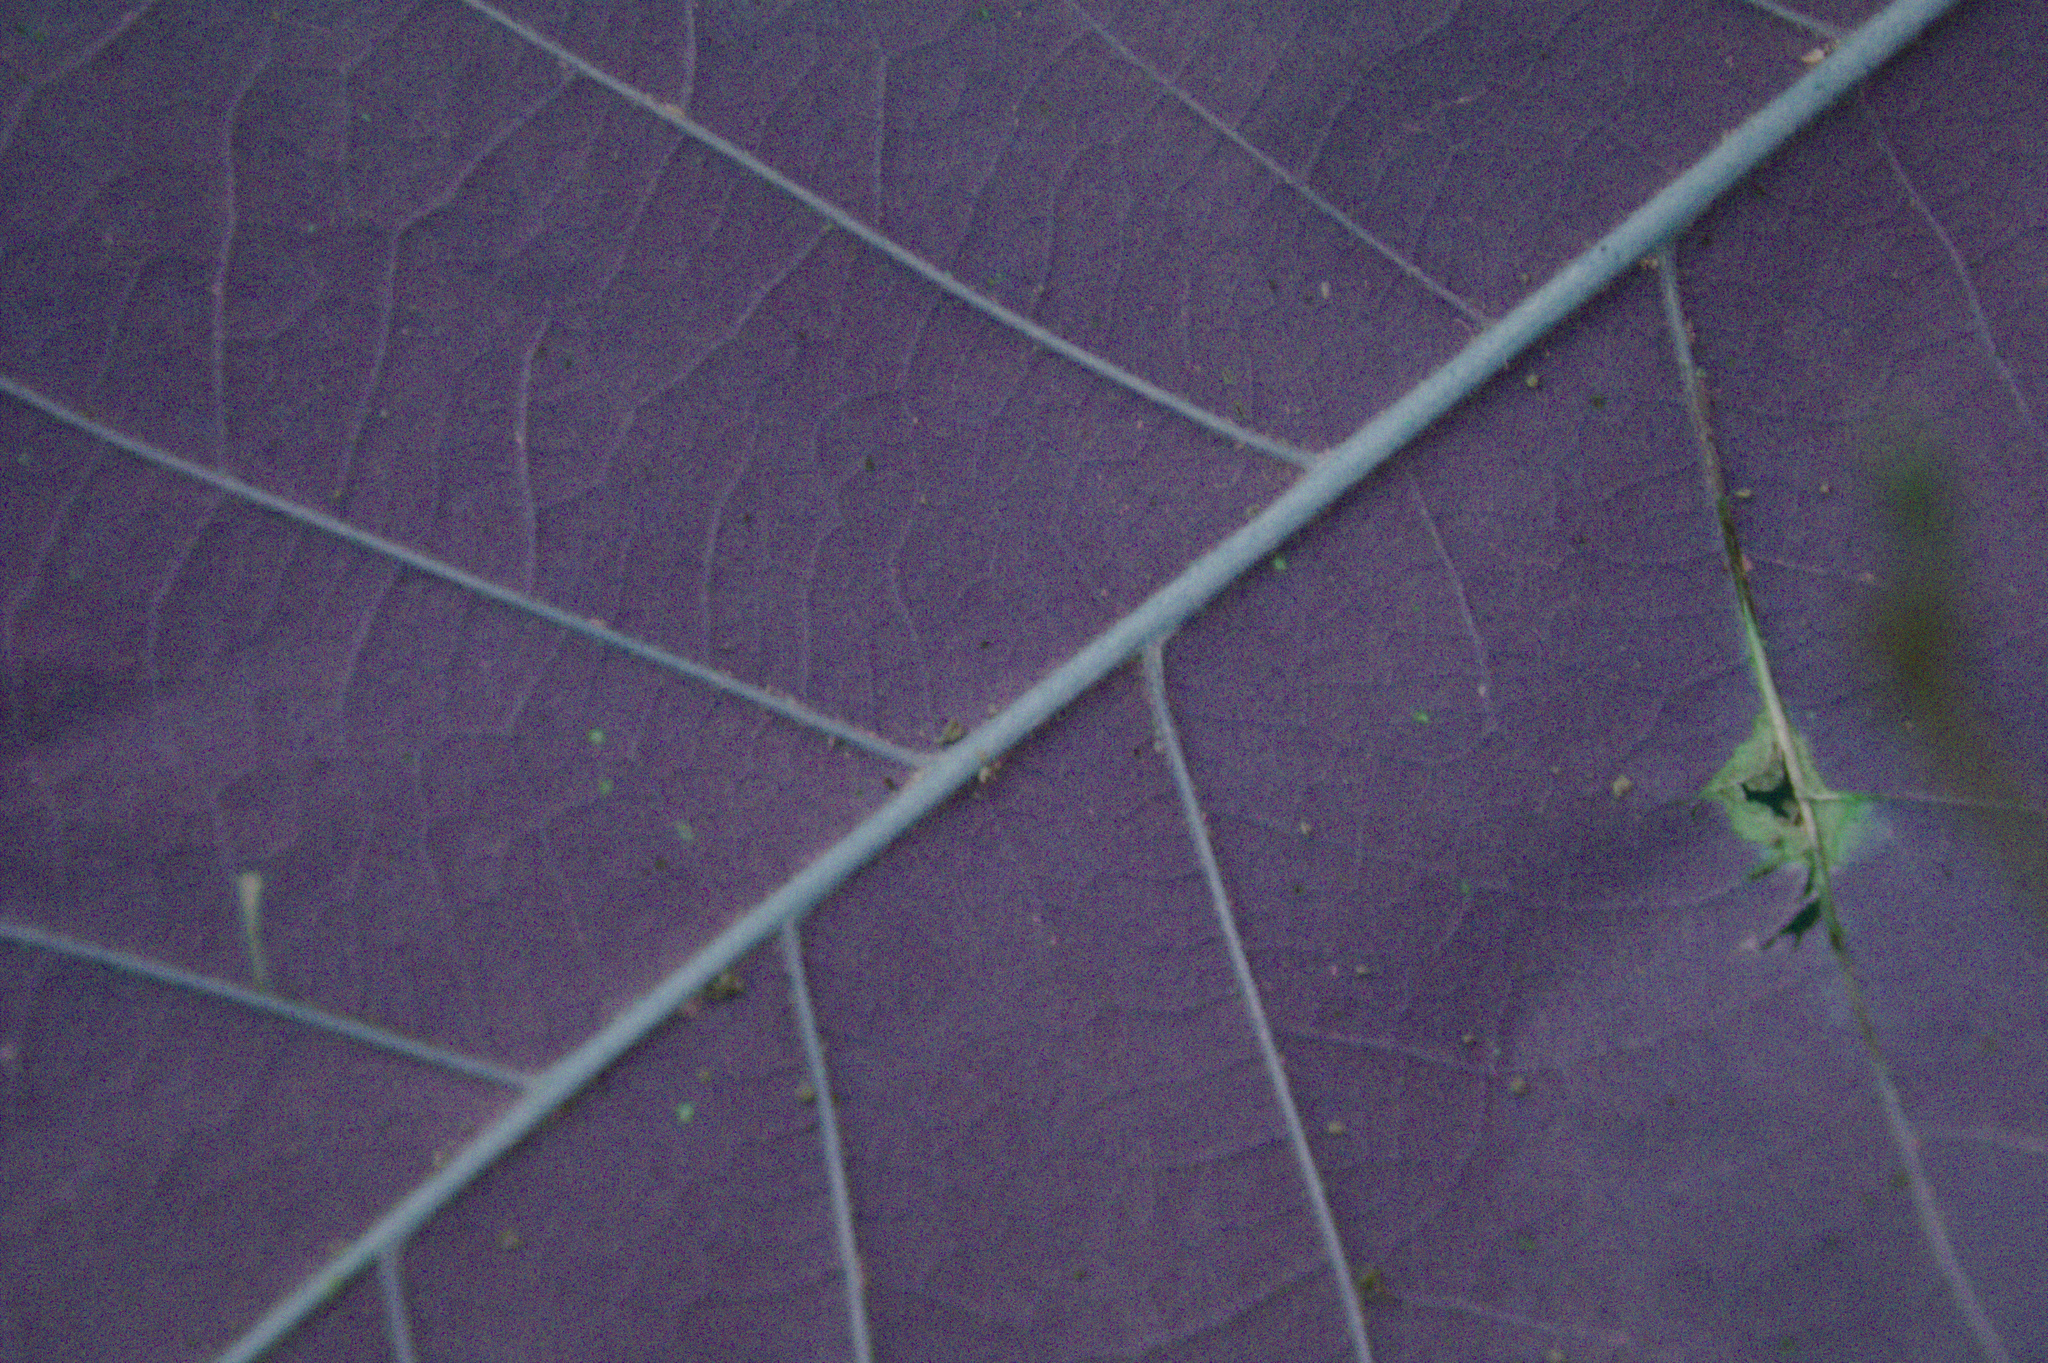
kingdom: Plantae
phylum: Tracheophyta
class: Magnoliopsida
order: Fagales
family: Fagaceae
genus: Quercus
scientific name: Quercus macrocarpa
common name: Bur oak
